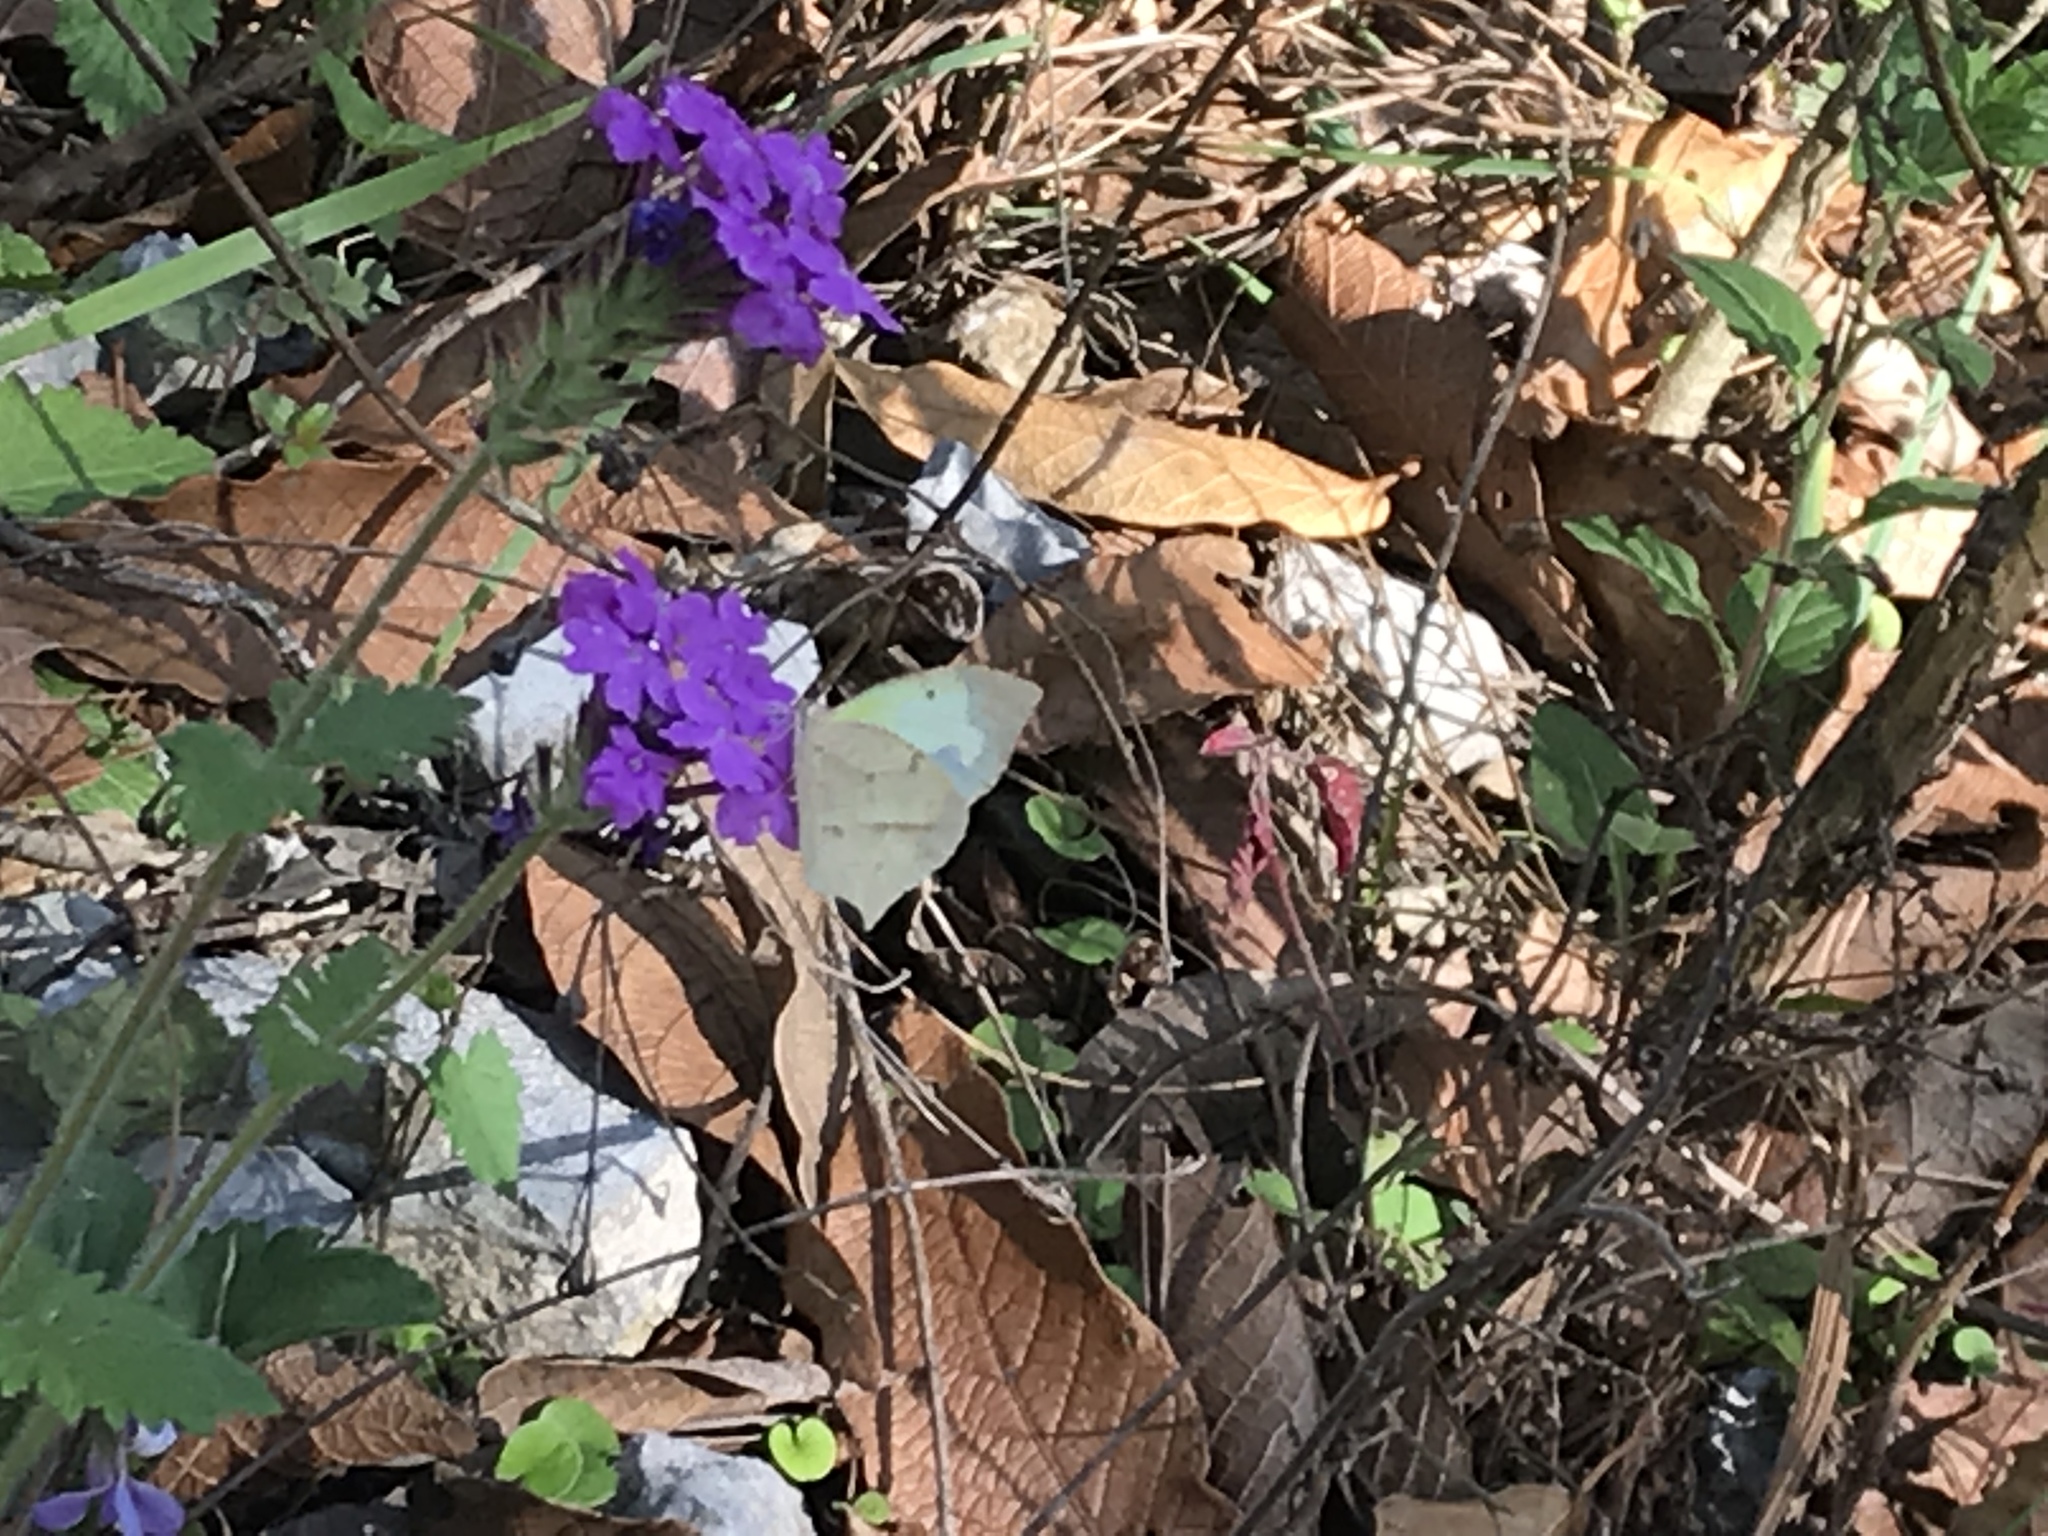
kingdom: Animalia
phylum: Arthropoda
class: Insecta
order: Lepidoptera
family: Pieridae
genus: Abaeis
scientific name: Abaeis mexicana
